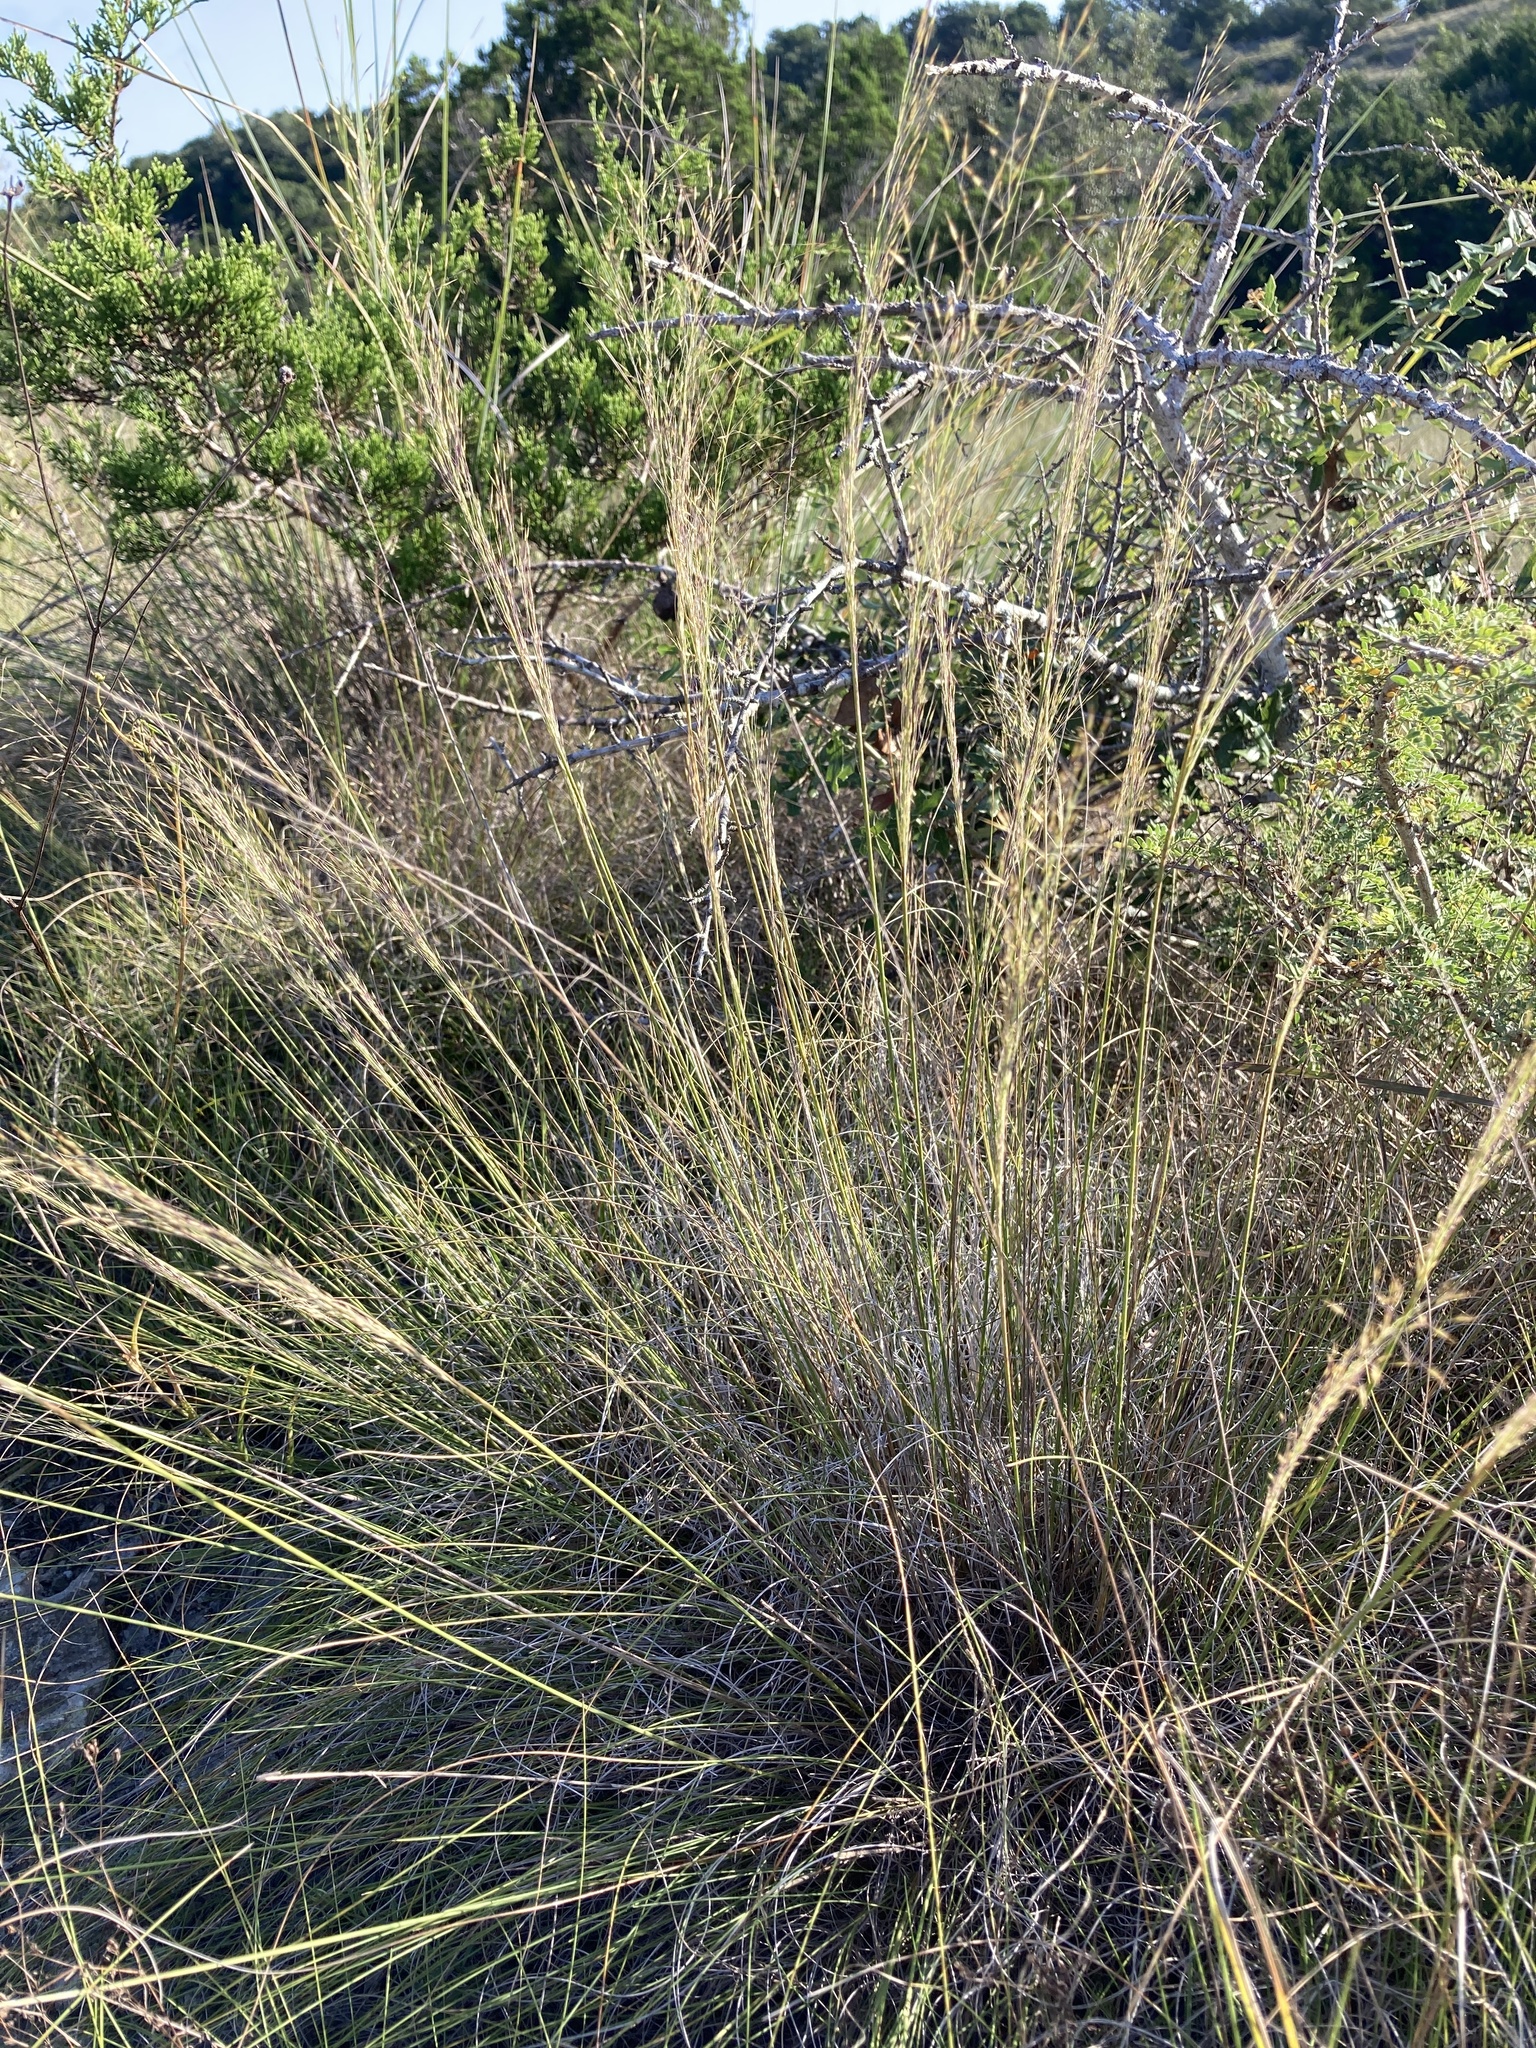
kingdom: Plantae
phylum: Tracheophyta
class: Liliopsida
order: Poales
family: Poaceae
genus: Muhlenbergia
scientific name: Muhlenbergia reverchonii
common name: Seep muhly
